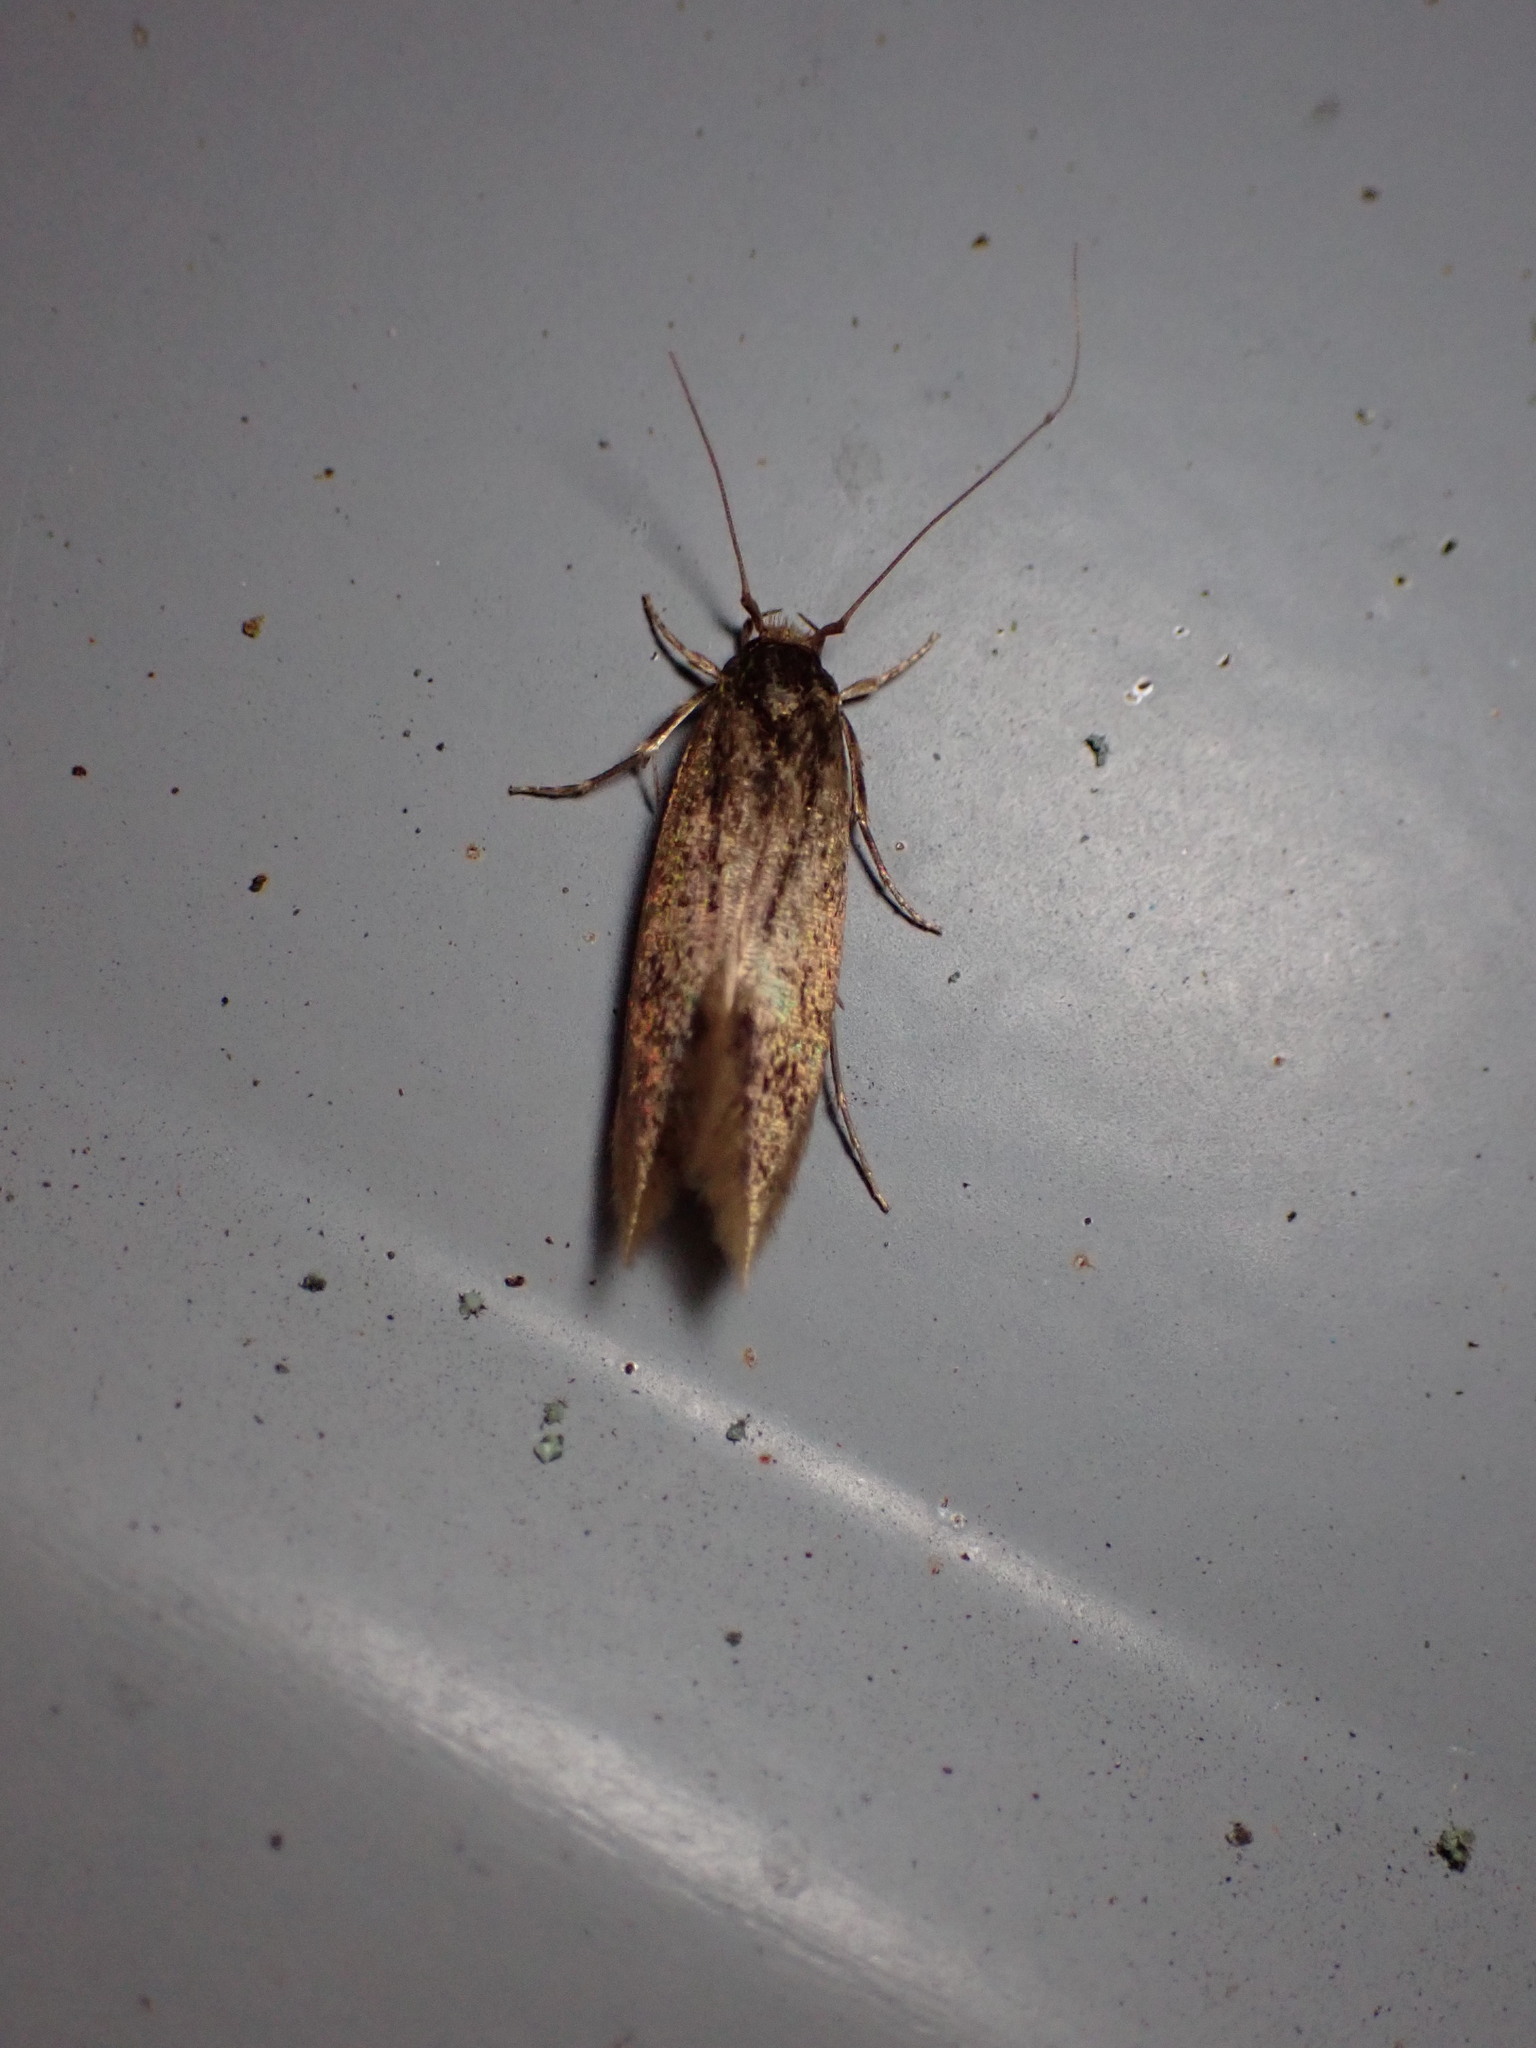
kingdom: Animalia
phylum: Arthropoda
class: Insecta
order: Lepidoptera
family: Tineidae
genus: Opogona
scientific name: Opogona omoscopa
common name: Moth
